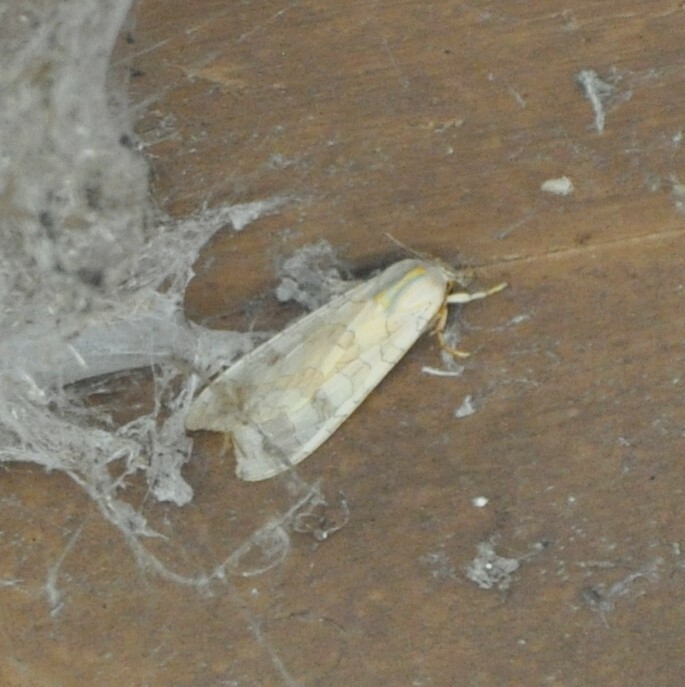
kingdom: Animalia
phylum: Arthropoda
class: Insecta
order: Lepidoptera
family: Erebidae
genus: Halysidota
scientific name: Halysidota
